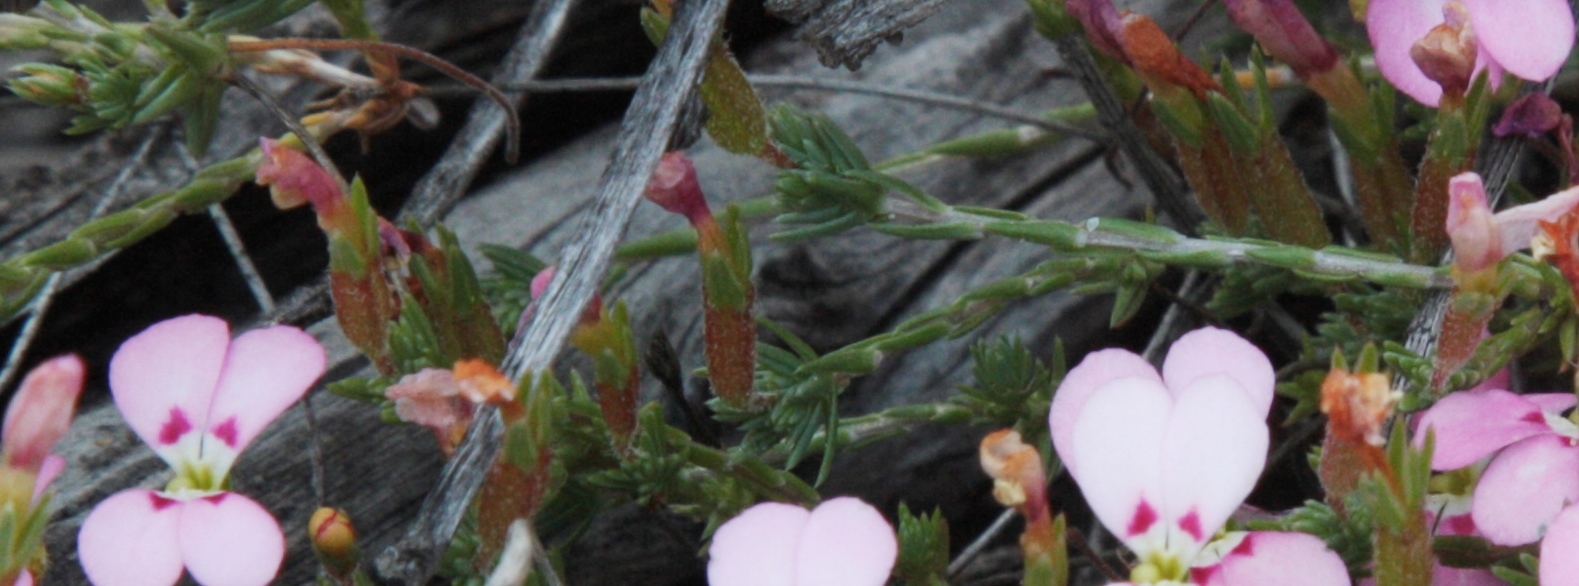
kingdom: Plantae
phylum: Tracheophyta
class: Magnoliopsida
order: Asterales
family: Stylidiaceae
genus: Stylidium
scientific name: Stylidium perula
